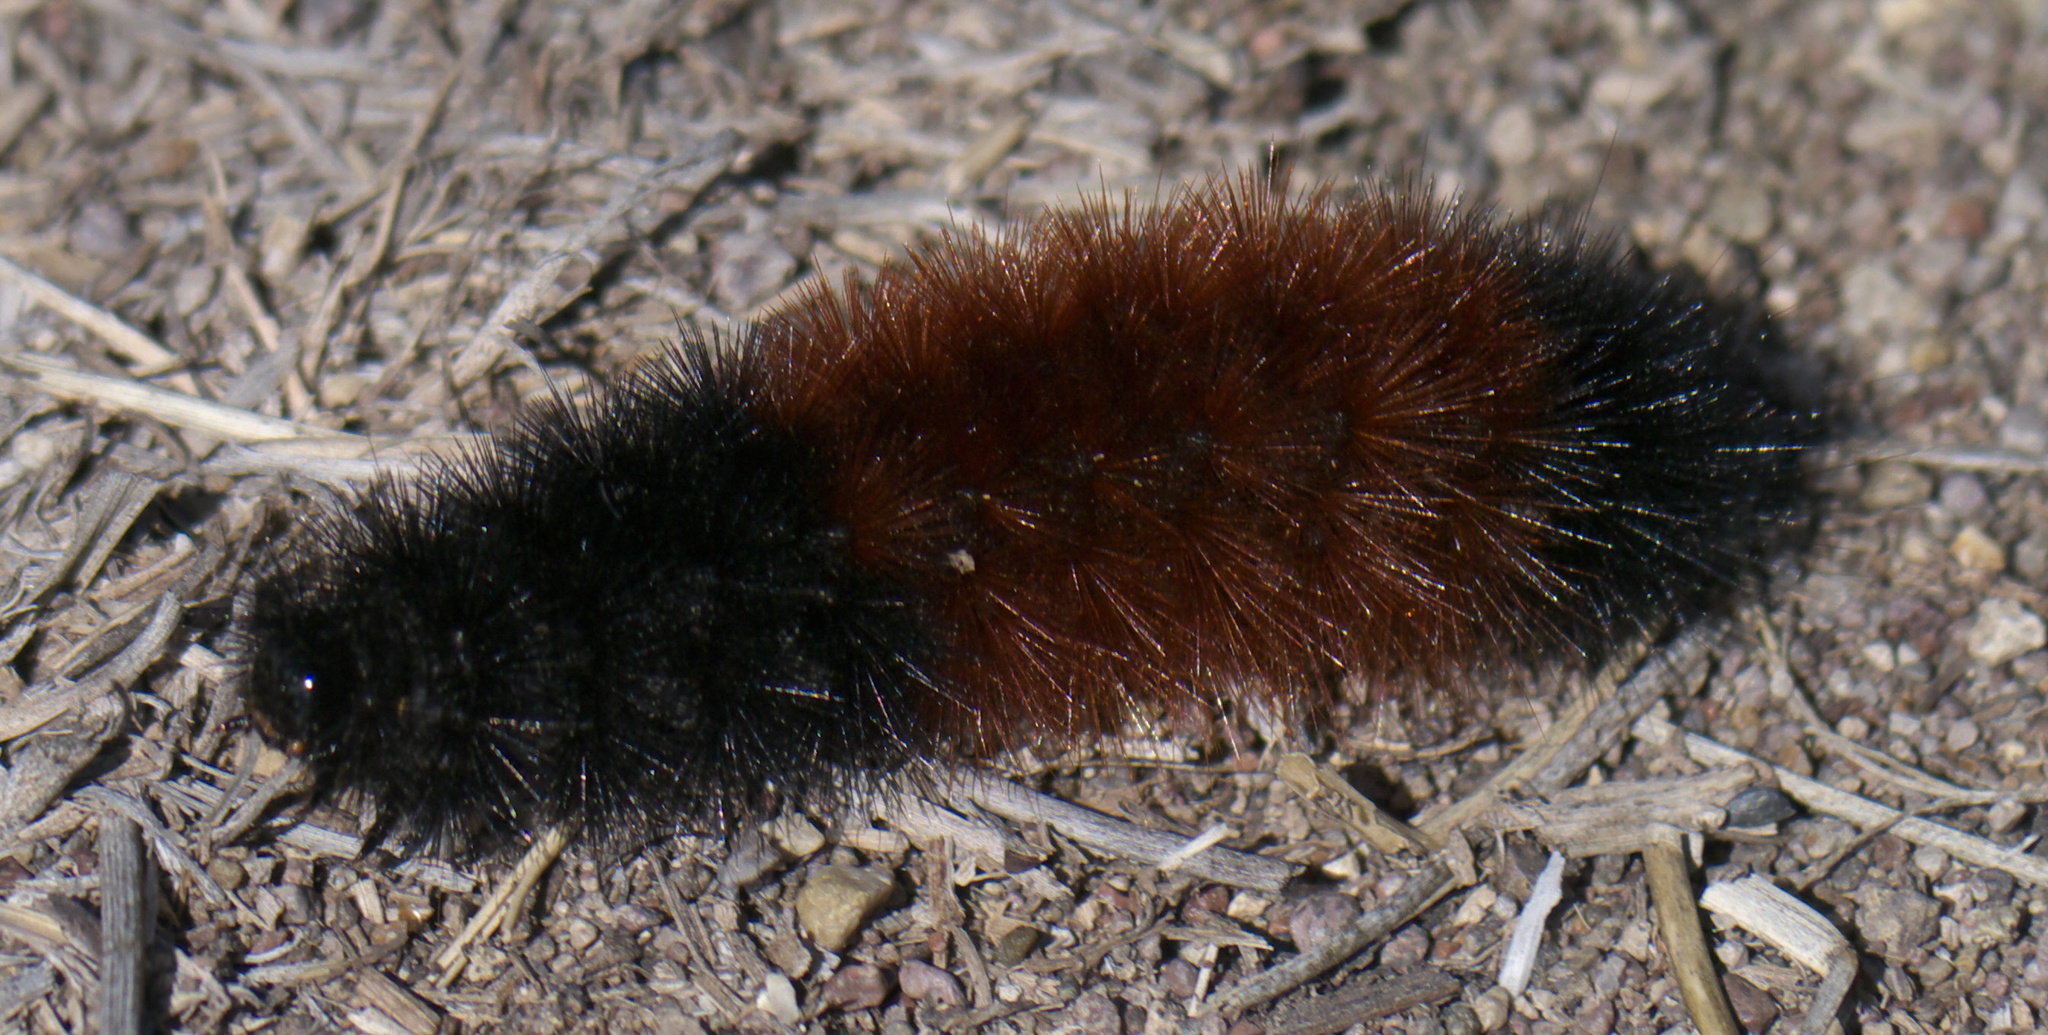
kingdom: Animalia
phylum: Arthropoda
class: Insecta
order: Lepidoptera
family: Erebidae
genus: Pyrrharctia
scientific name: Pyrrharctia isabella
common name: Isabella tiger moth
